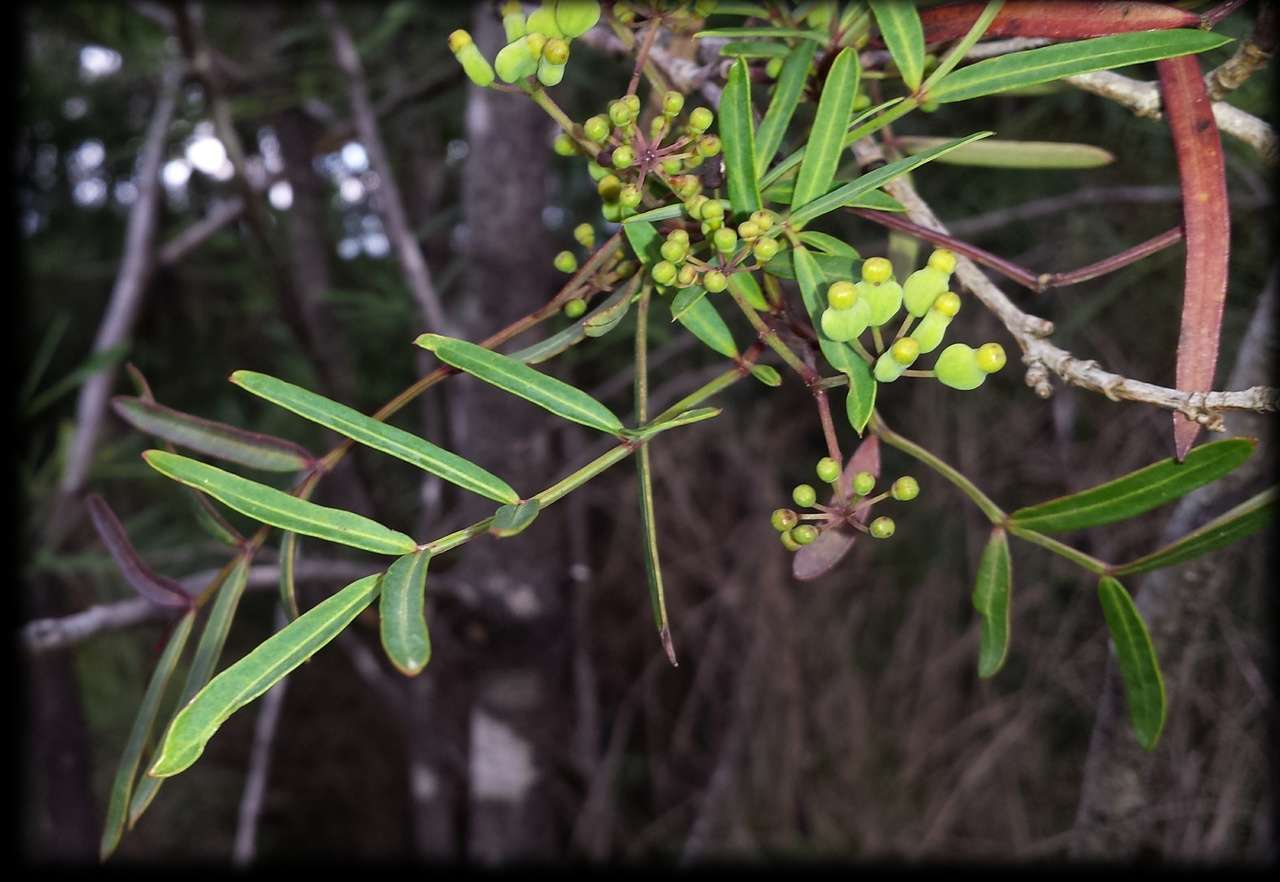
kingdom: Plantae
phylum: Tracheophyta
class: Magnoliopsida
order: Apiales
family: Araliaceae
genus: Polyscias
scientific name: Polyscias sambucifolia
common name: Elderberry-ash
